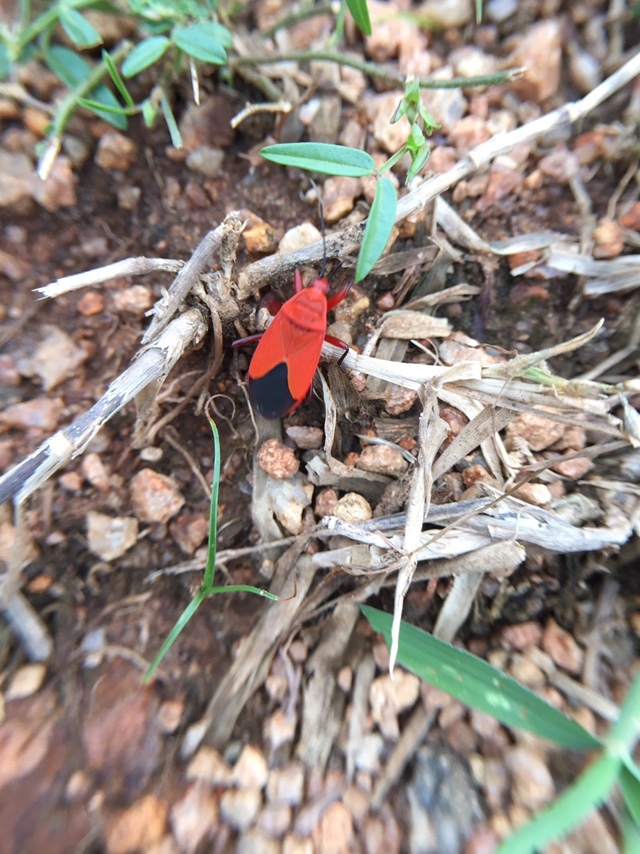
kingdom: Animalia
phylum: Arthropoda
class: Insecta
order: Hemiptera
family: Pyrrhocoridae
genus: Antilochus
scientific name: Antilochus coquebertii
